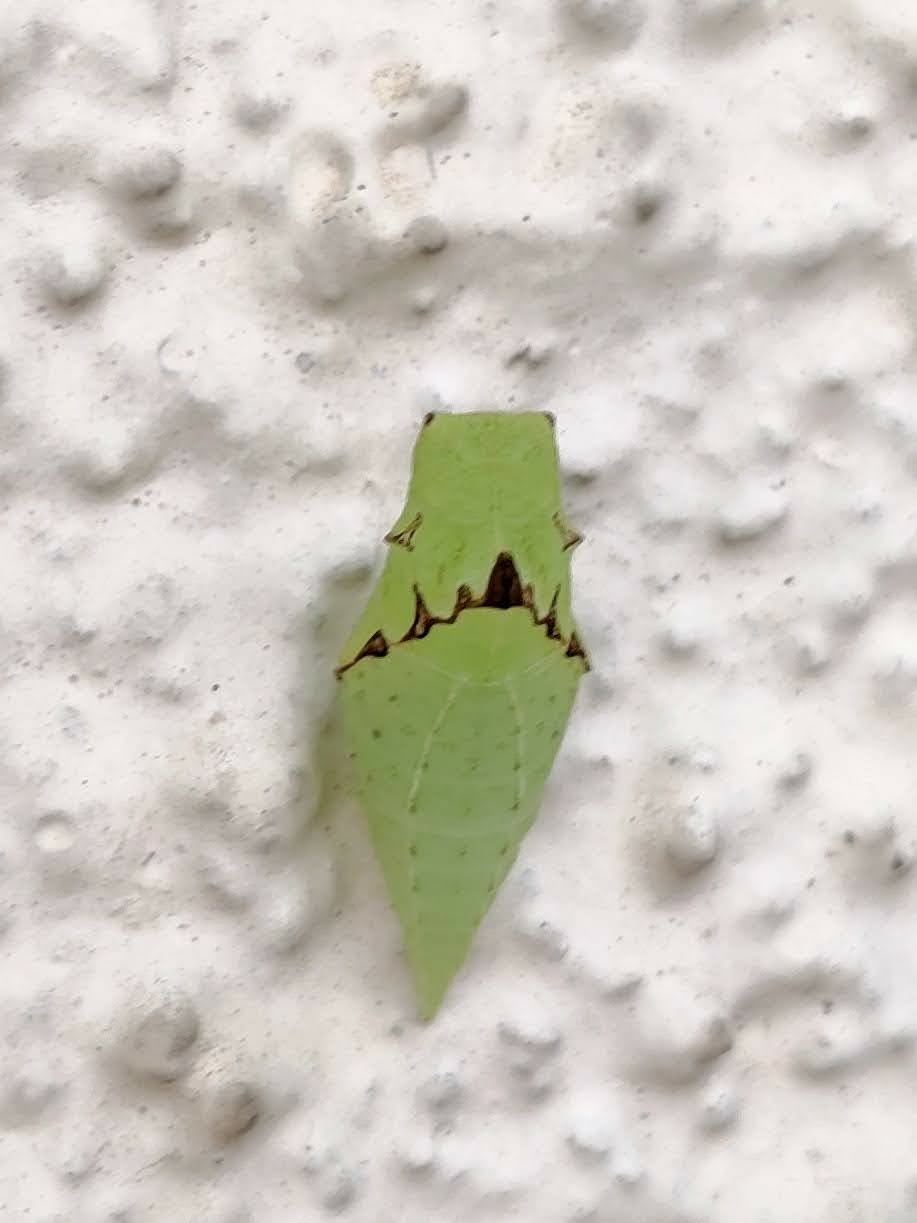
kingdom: Animalia
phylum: Arthropoda
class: Insecta
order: Lepidoptera
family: Papilionidae
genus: Graphium
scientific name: Graphium agamemnon
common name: Tailed jay
